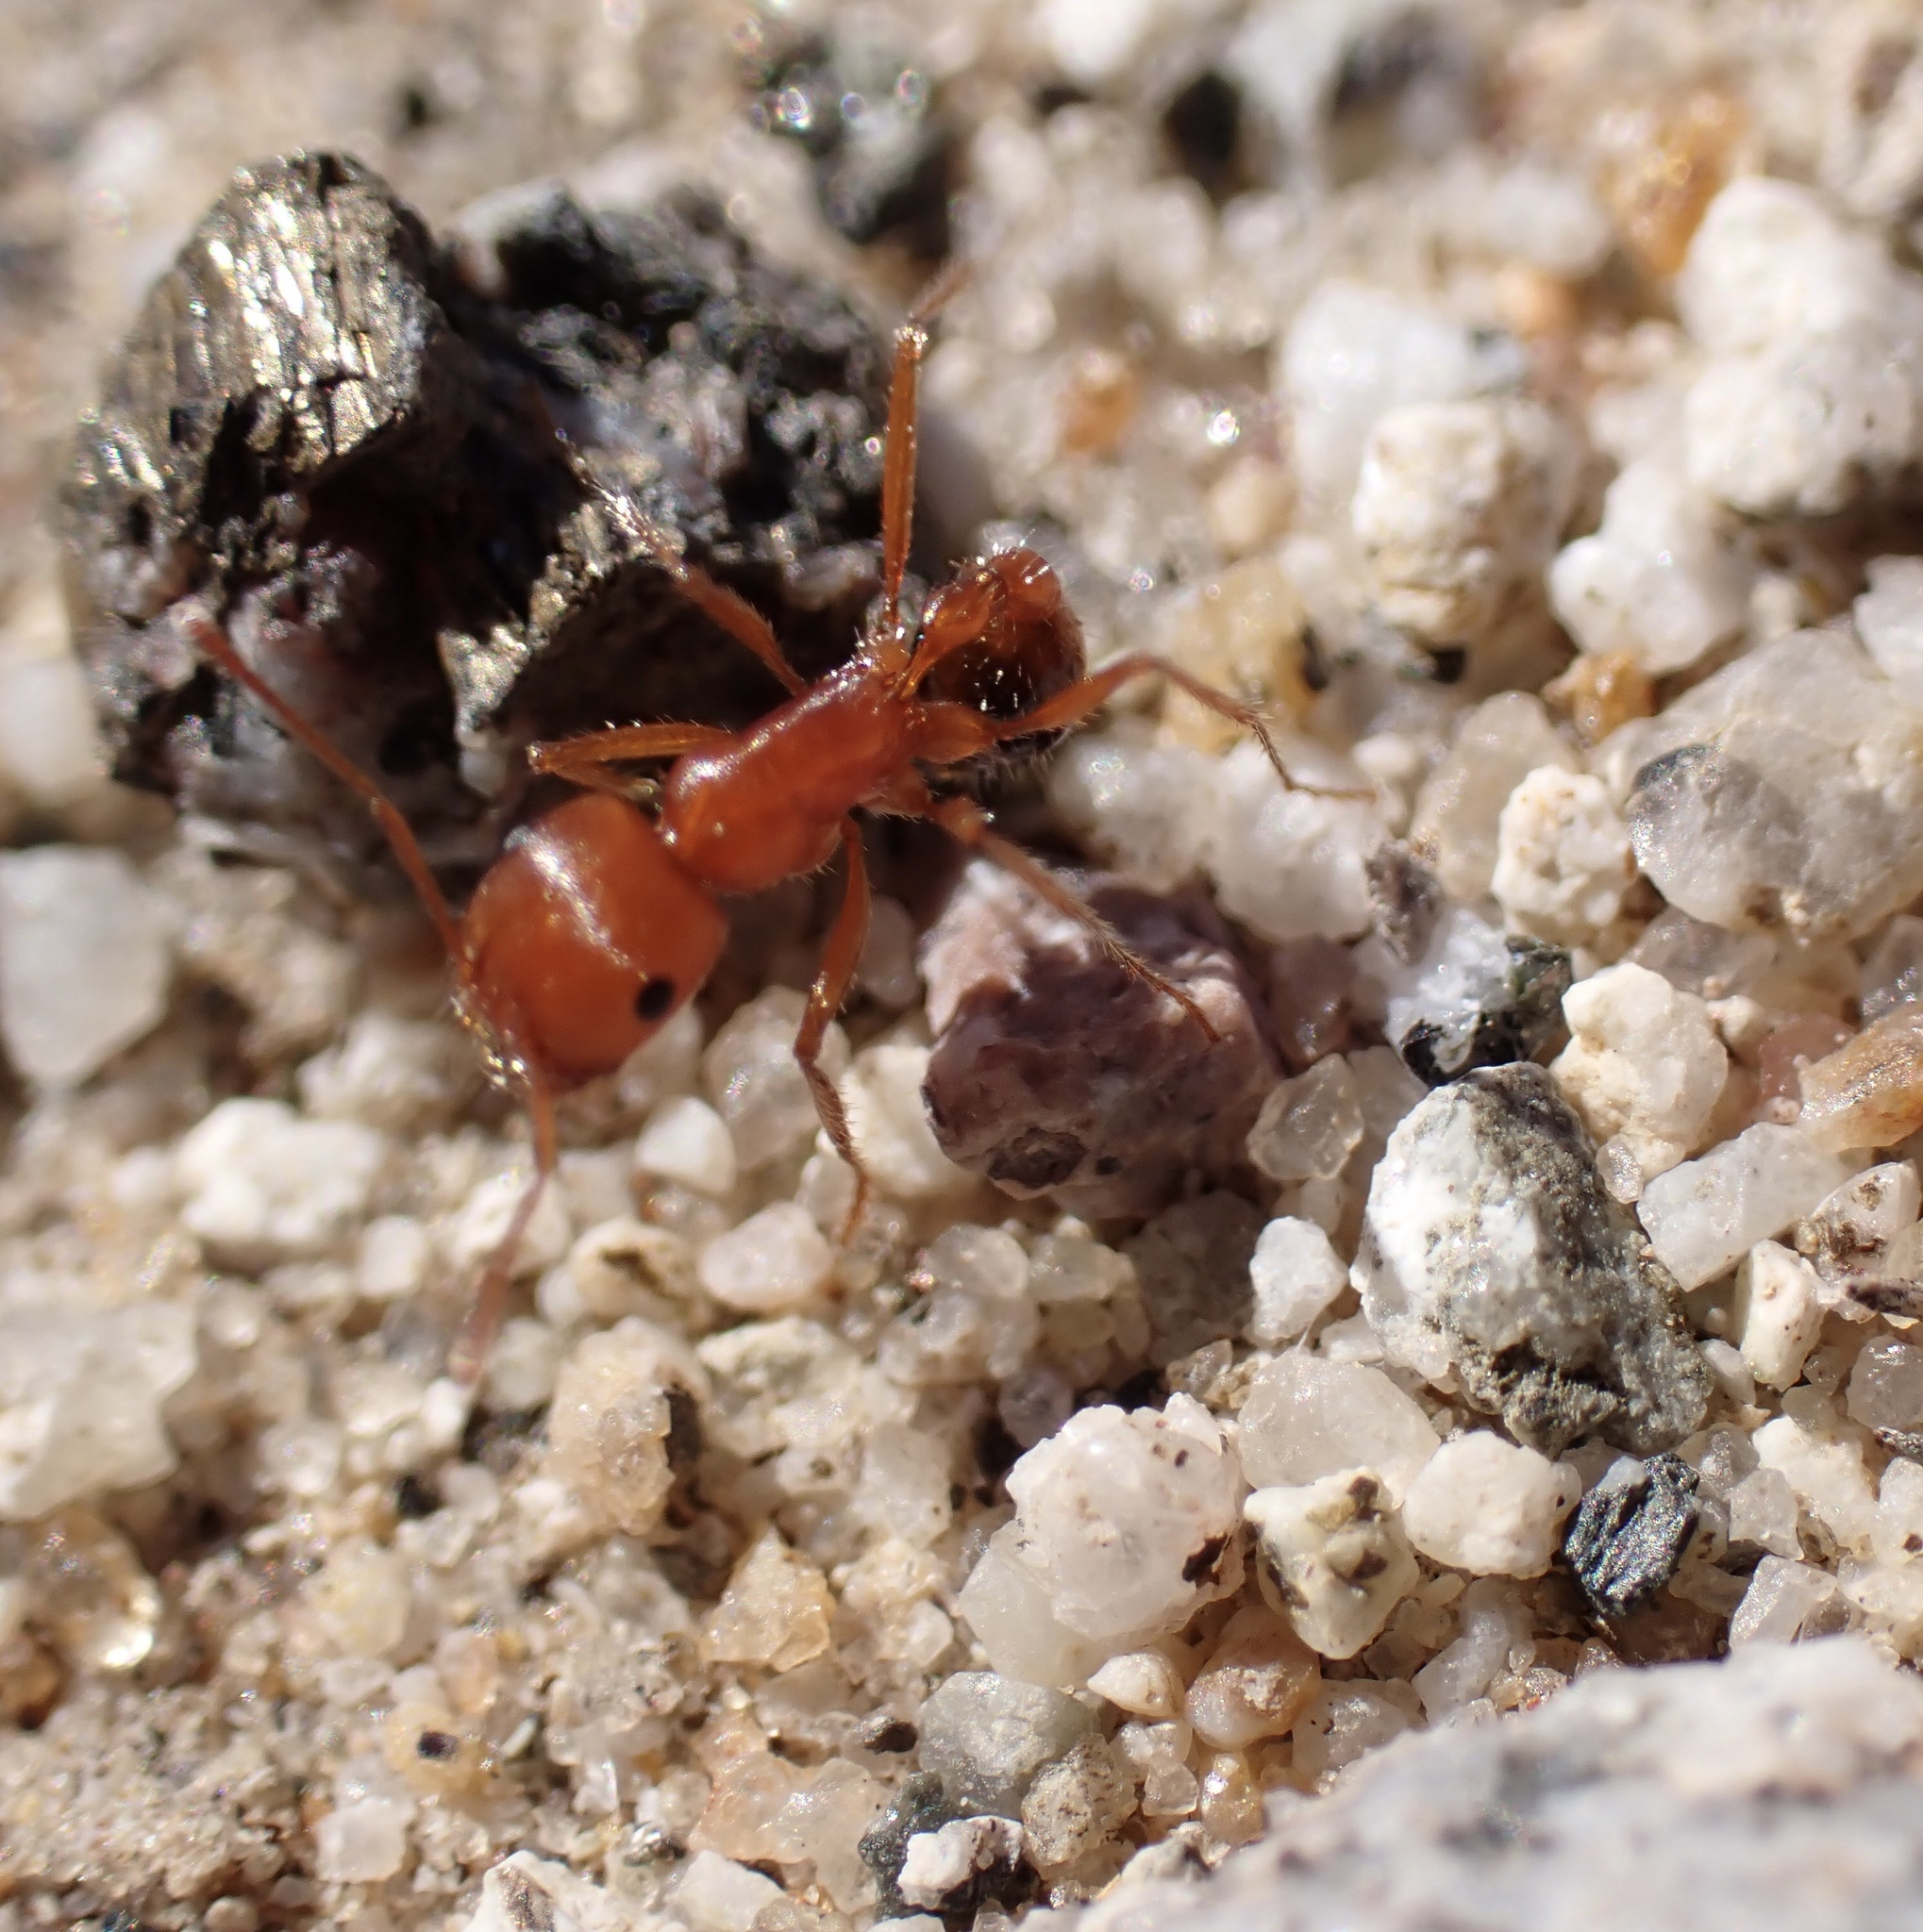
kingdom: Animalia
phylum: Arthropoda
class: Insecta
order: Hymenoptera
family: Formicidae
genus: Pogonomyrmex
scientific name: Pogonomyrmex californicus
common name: California harvester ant
